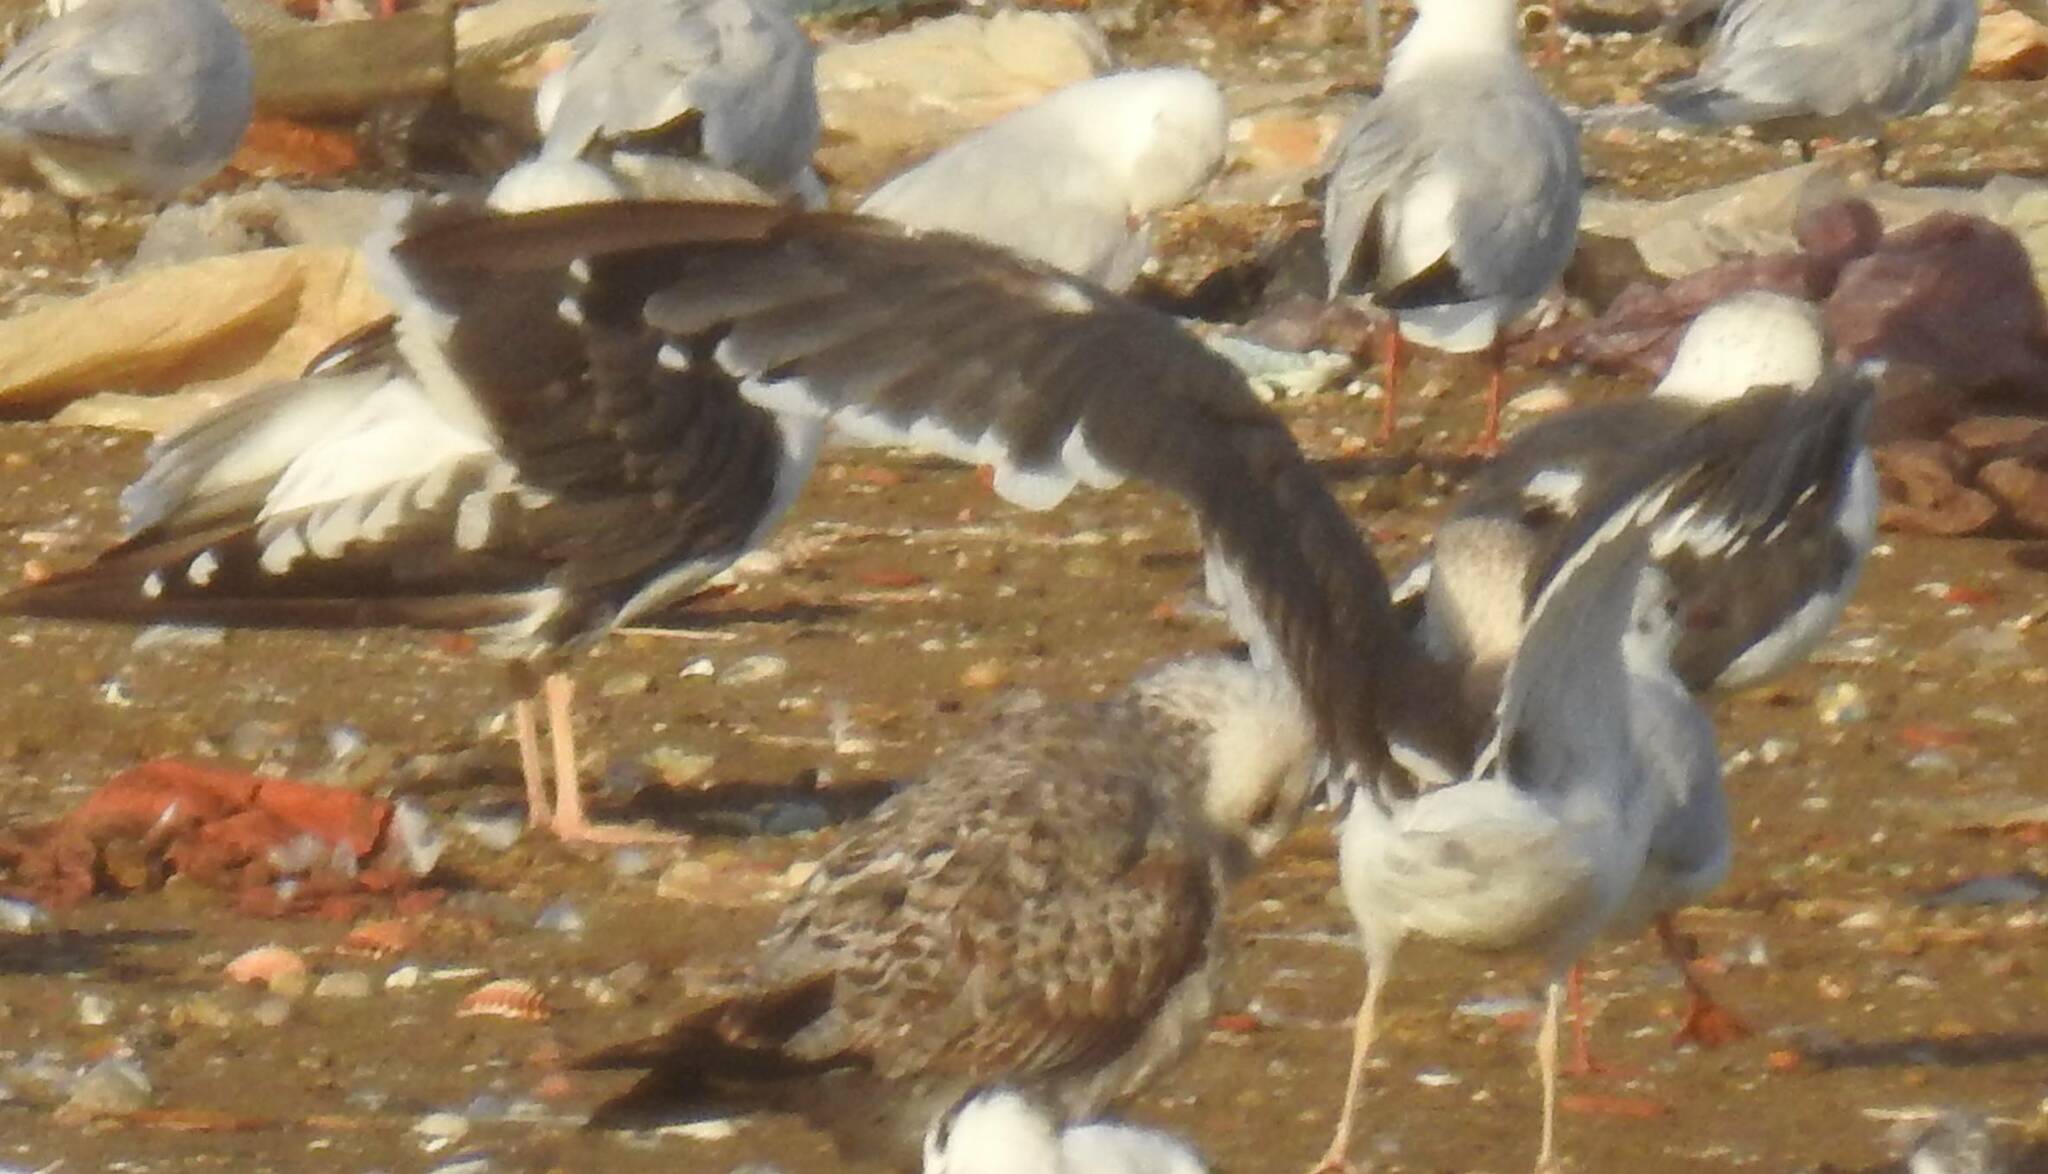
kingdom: Animalia
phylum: Chordata
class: Aves
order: Charadriiformes
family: Laridae
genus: Larus
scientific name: Larus fuscus
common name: Lesser black-backed gull
